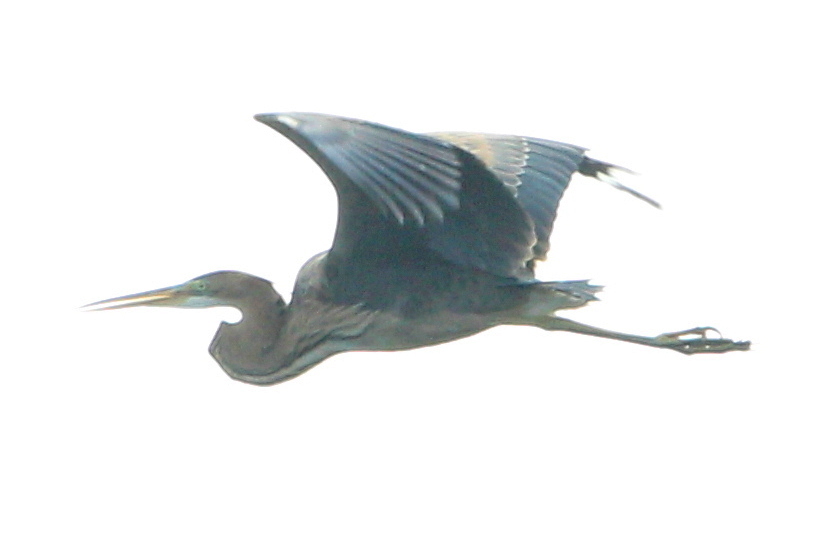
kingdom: Animalia
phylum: Chordata
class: Aves
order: Pelecaniformes
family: Ardeidae
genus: Ardea
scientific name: Ardea purpurea
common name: Purple heron
